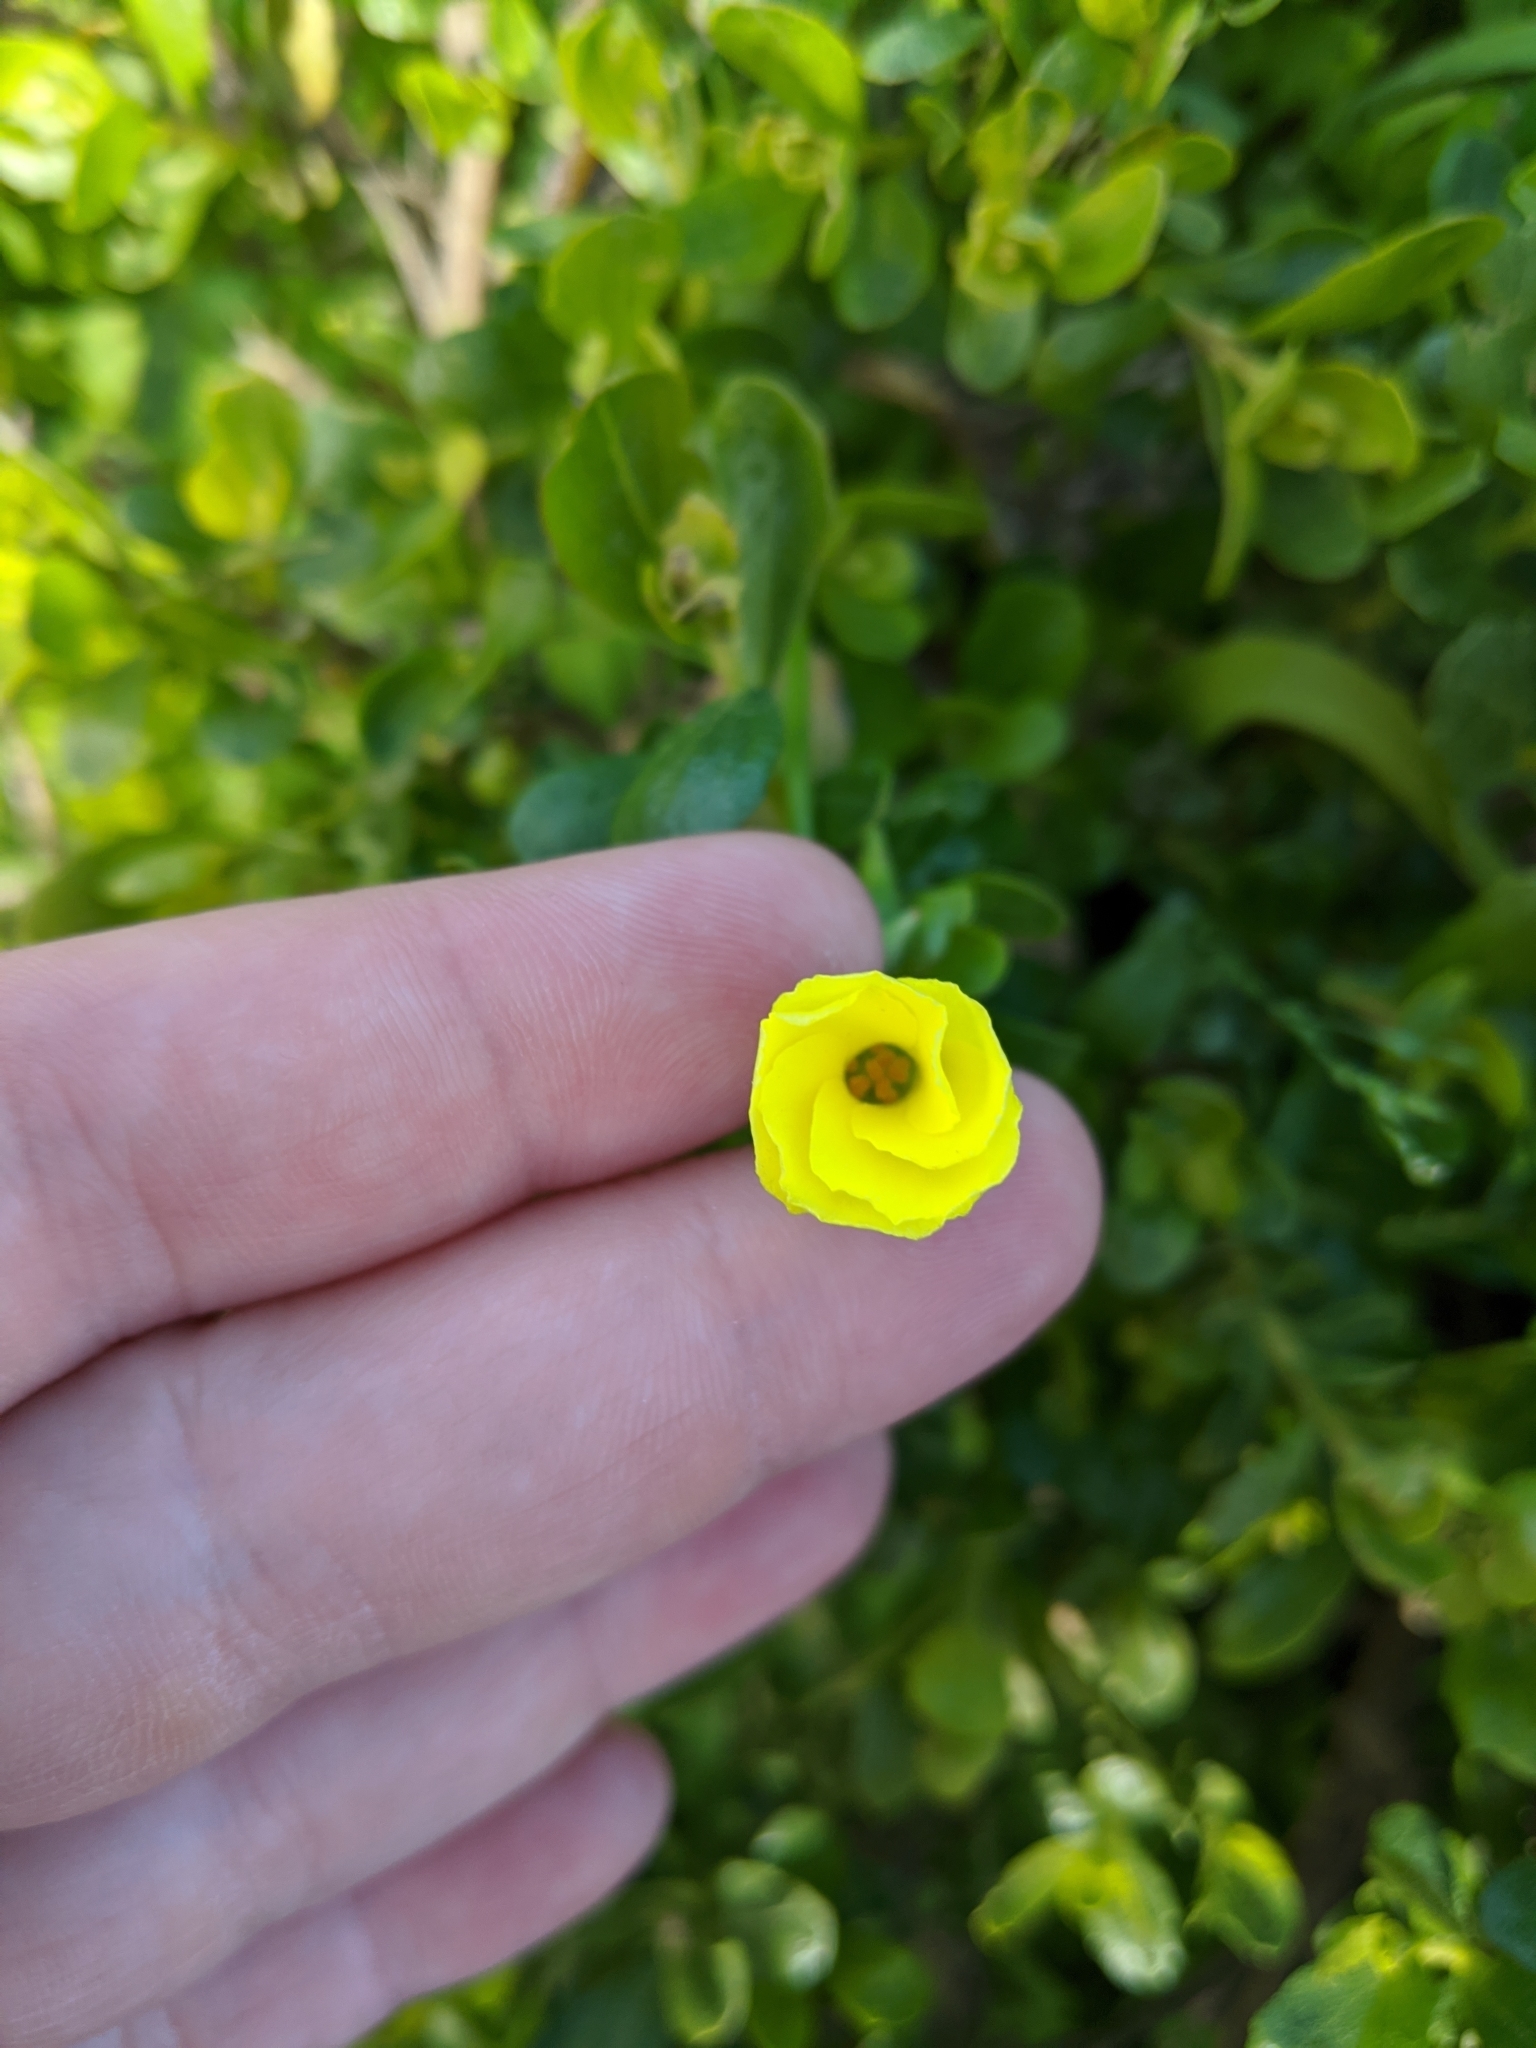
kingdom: Plantae
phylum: Tracheophyta
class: Magnoliopsida
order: Oxalidales
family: Oxalidaceae
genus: Oxalis
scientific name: Oxalis pes-caprae
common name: Bermuda-buttercup
